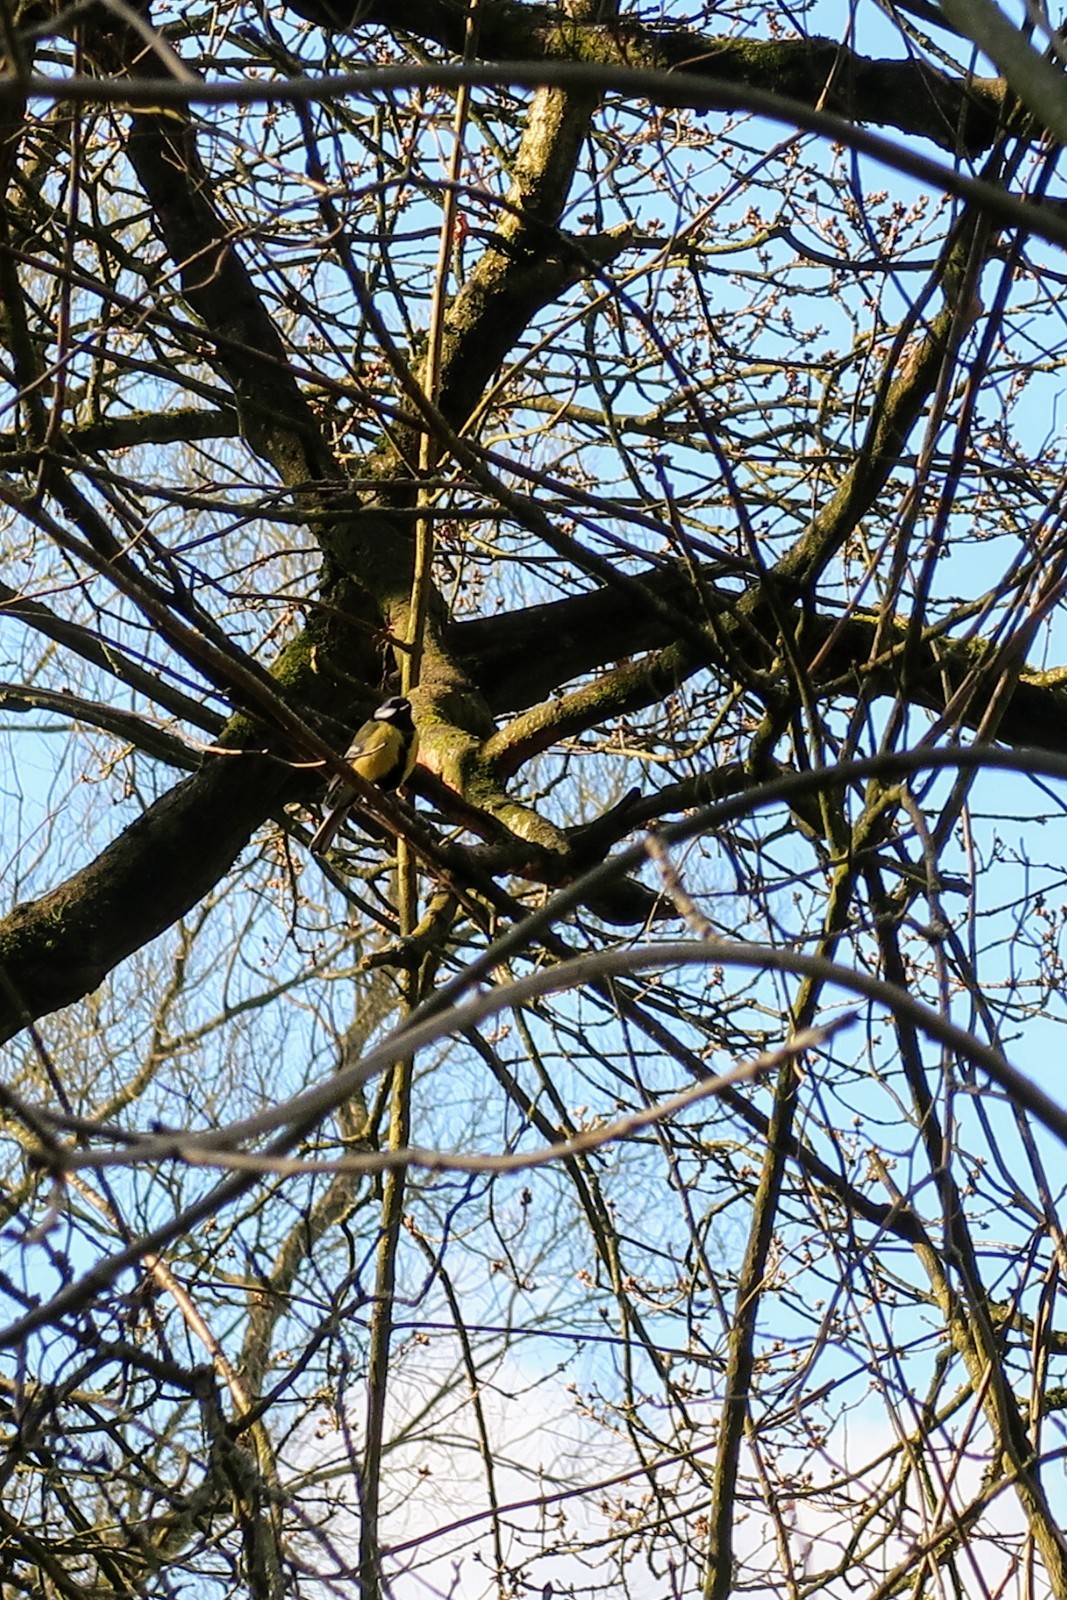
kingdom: Animalia
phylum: Chordata
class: Aves
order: Passeriformes
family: Paridae
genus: Parus
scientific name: Parus major
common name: Great tit
